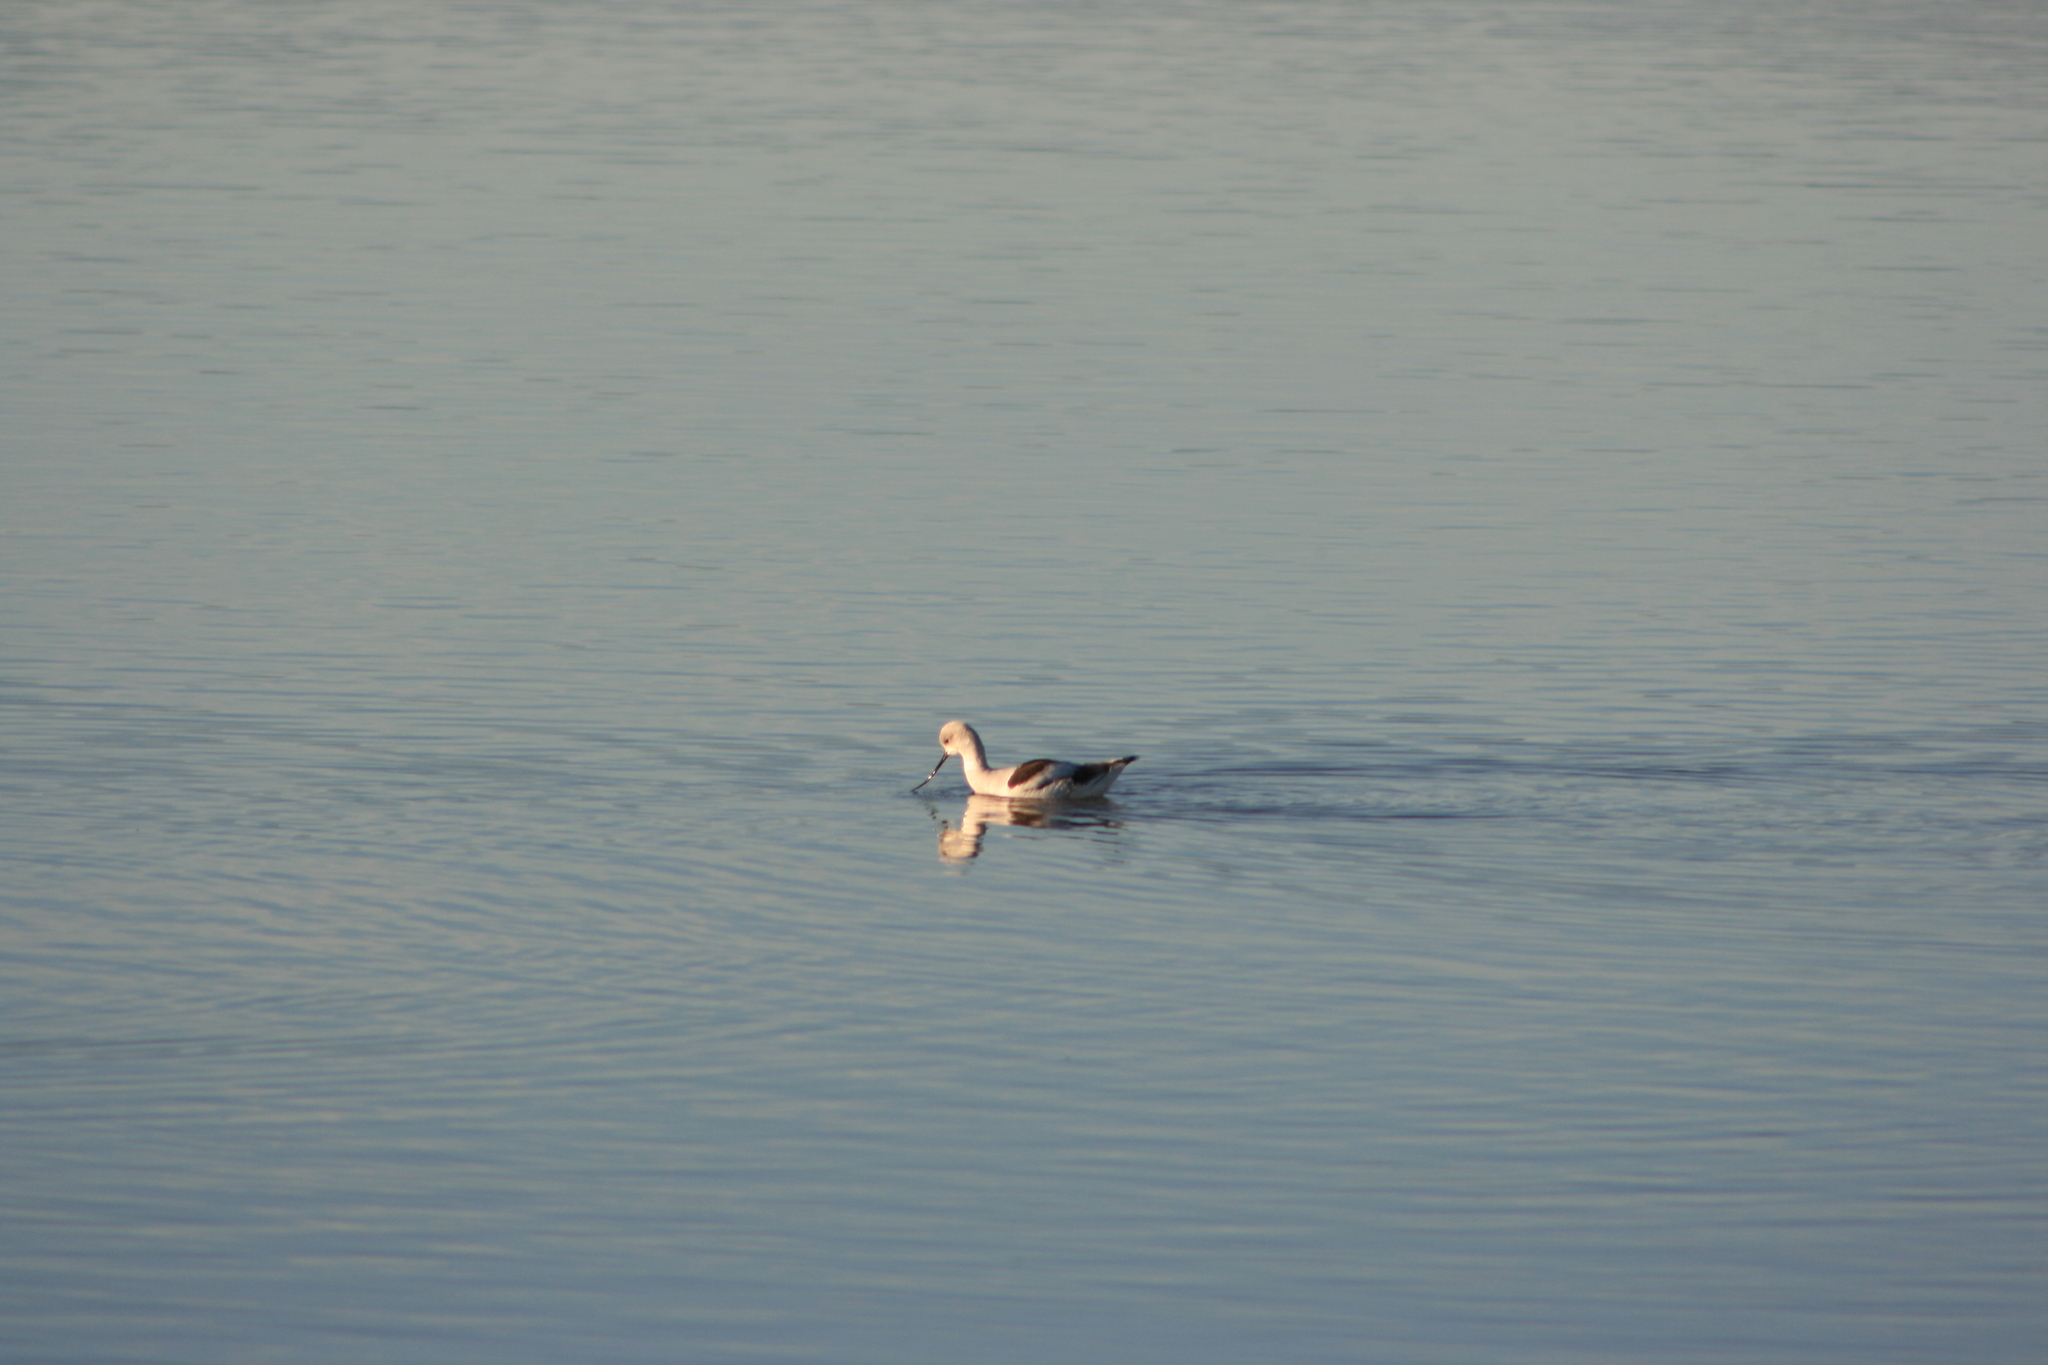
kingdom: Animalia
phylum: Chordata
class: Aves
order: Charadriiformes
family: Recurvirostridae
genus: Recurvirostra
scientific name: Recurvirostra americana
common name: American avocet
